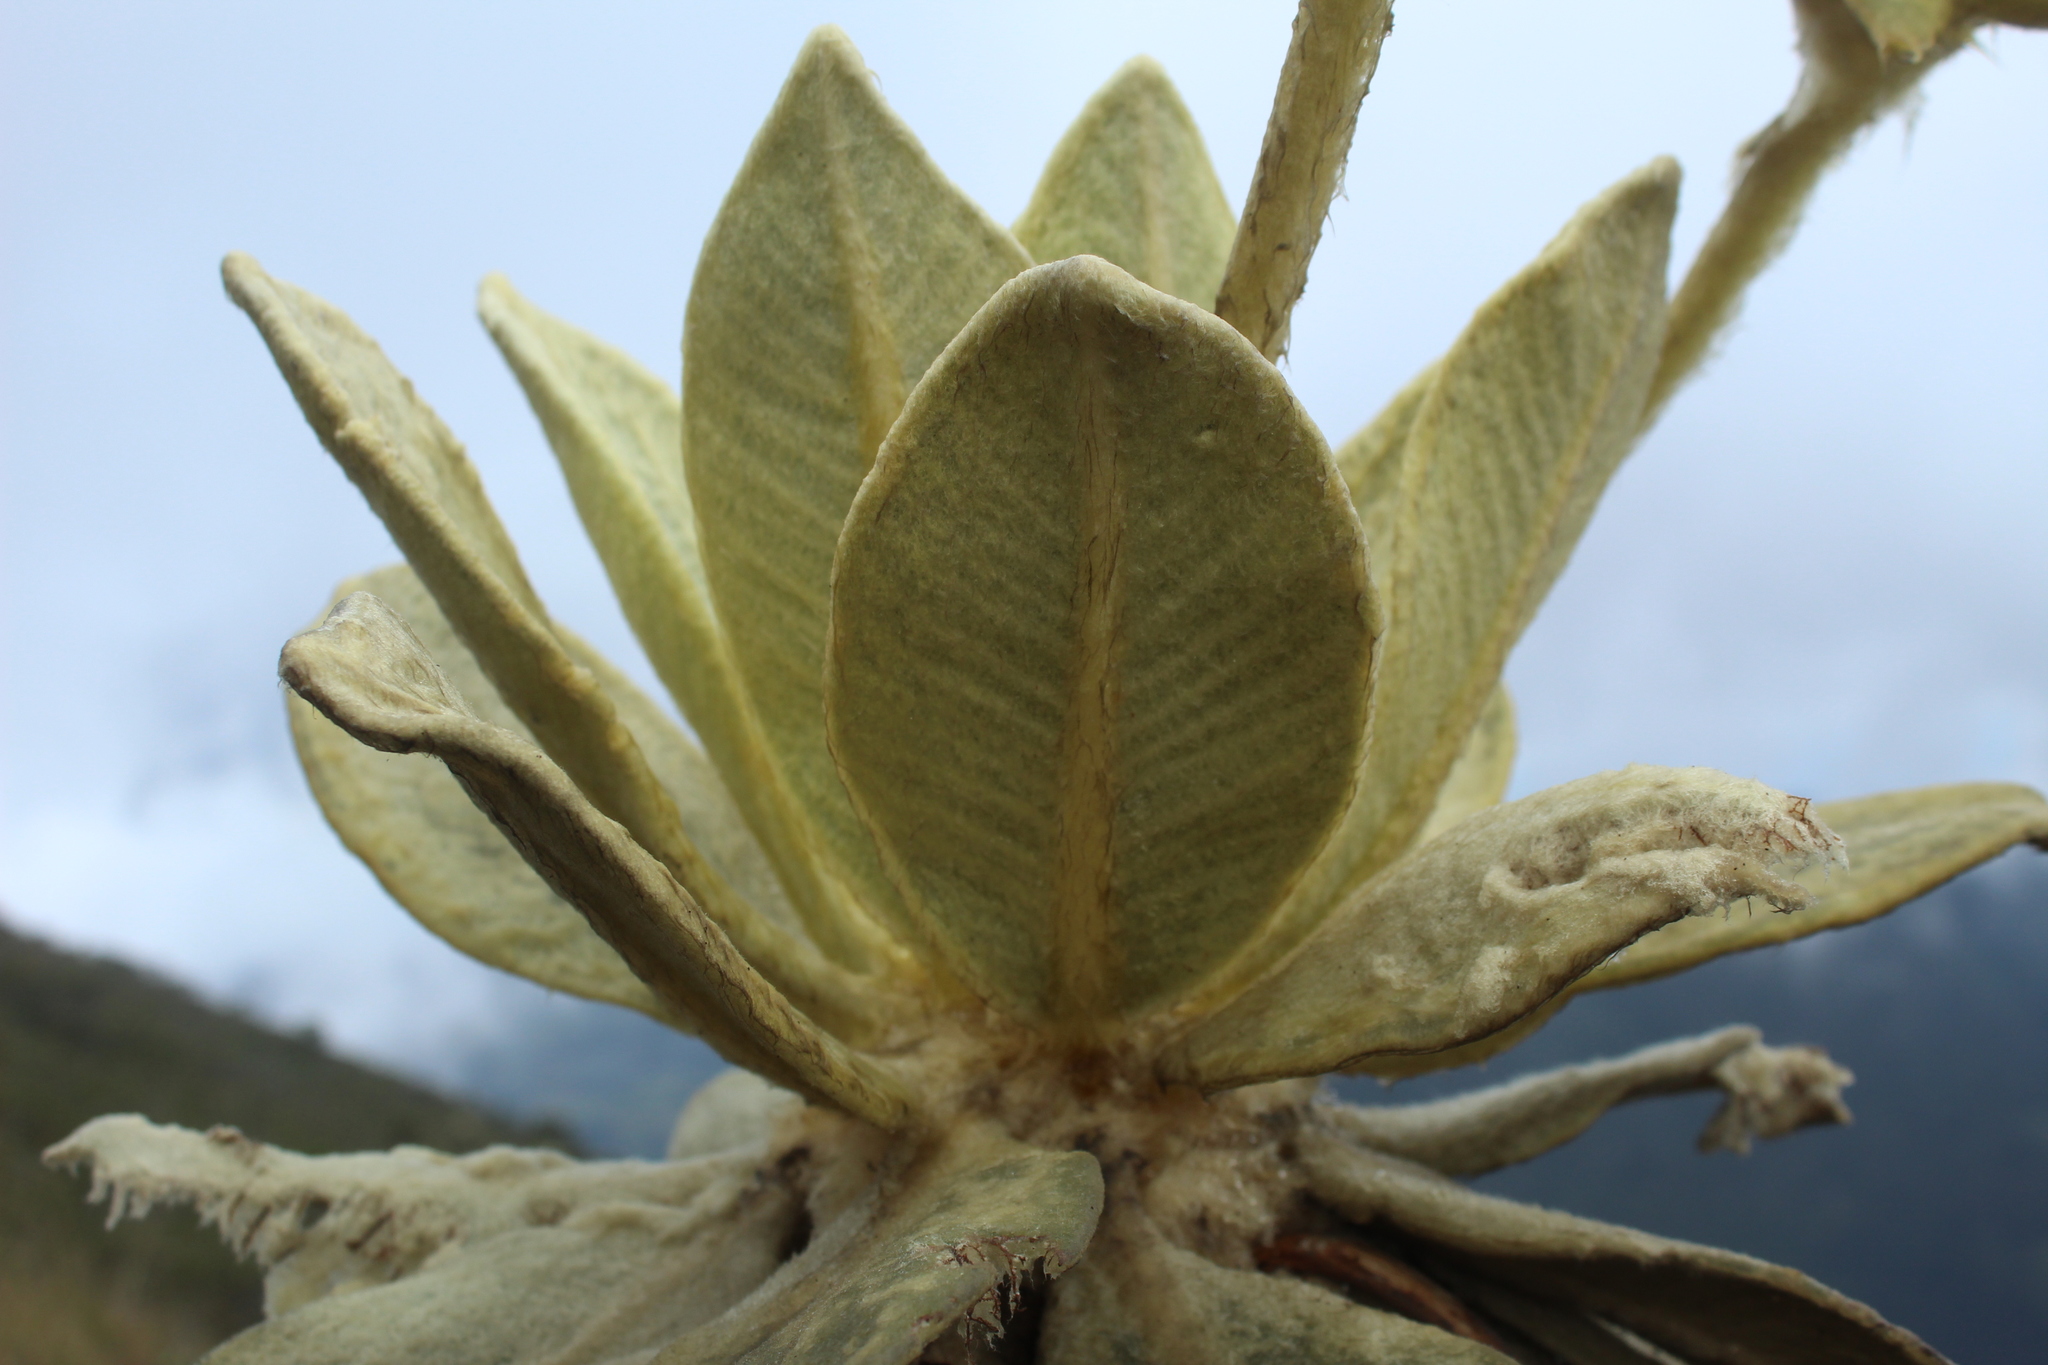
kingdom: Plantae
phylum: Tracheophyta
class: Magnoliopsida
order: Asterales
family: Asteraceae
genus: Espeletia
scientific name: Espeletia barclayana
